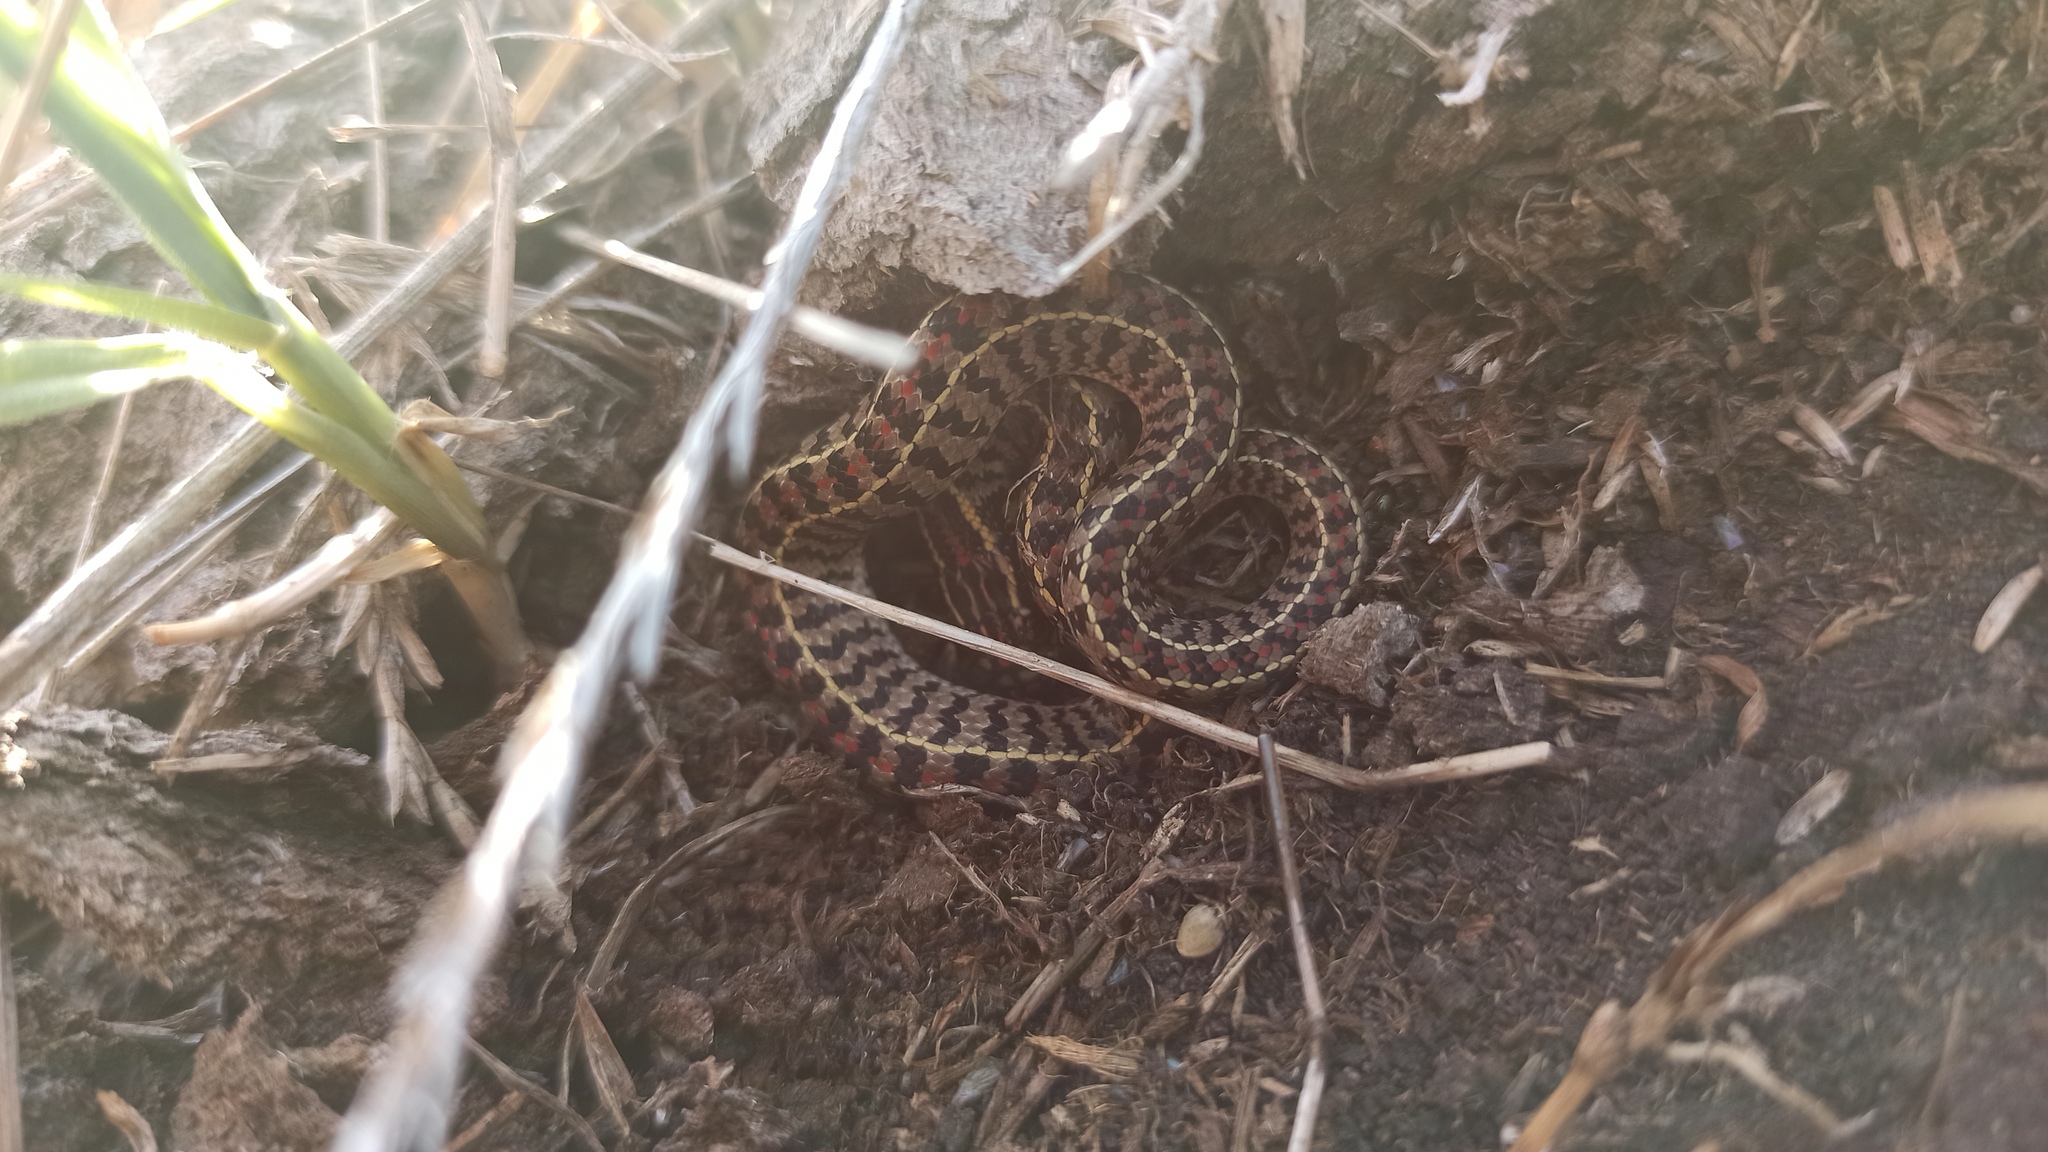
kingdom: Animalia
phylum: Chordata
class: Squamata
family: Colubridae
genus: Lygophis
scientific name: Lygophis anomalus
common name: English common name not available
